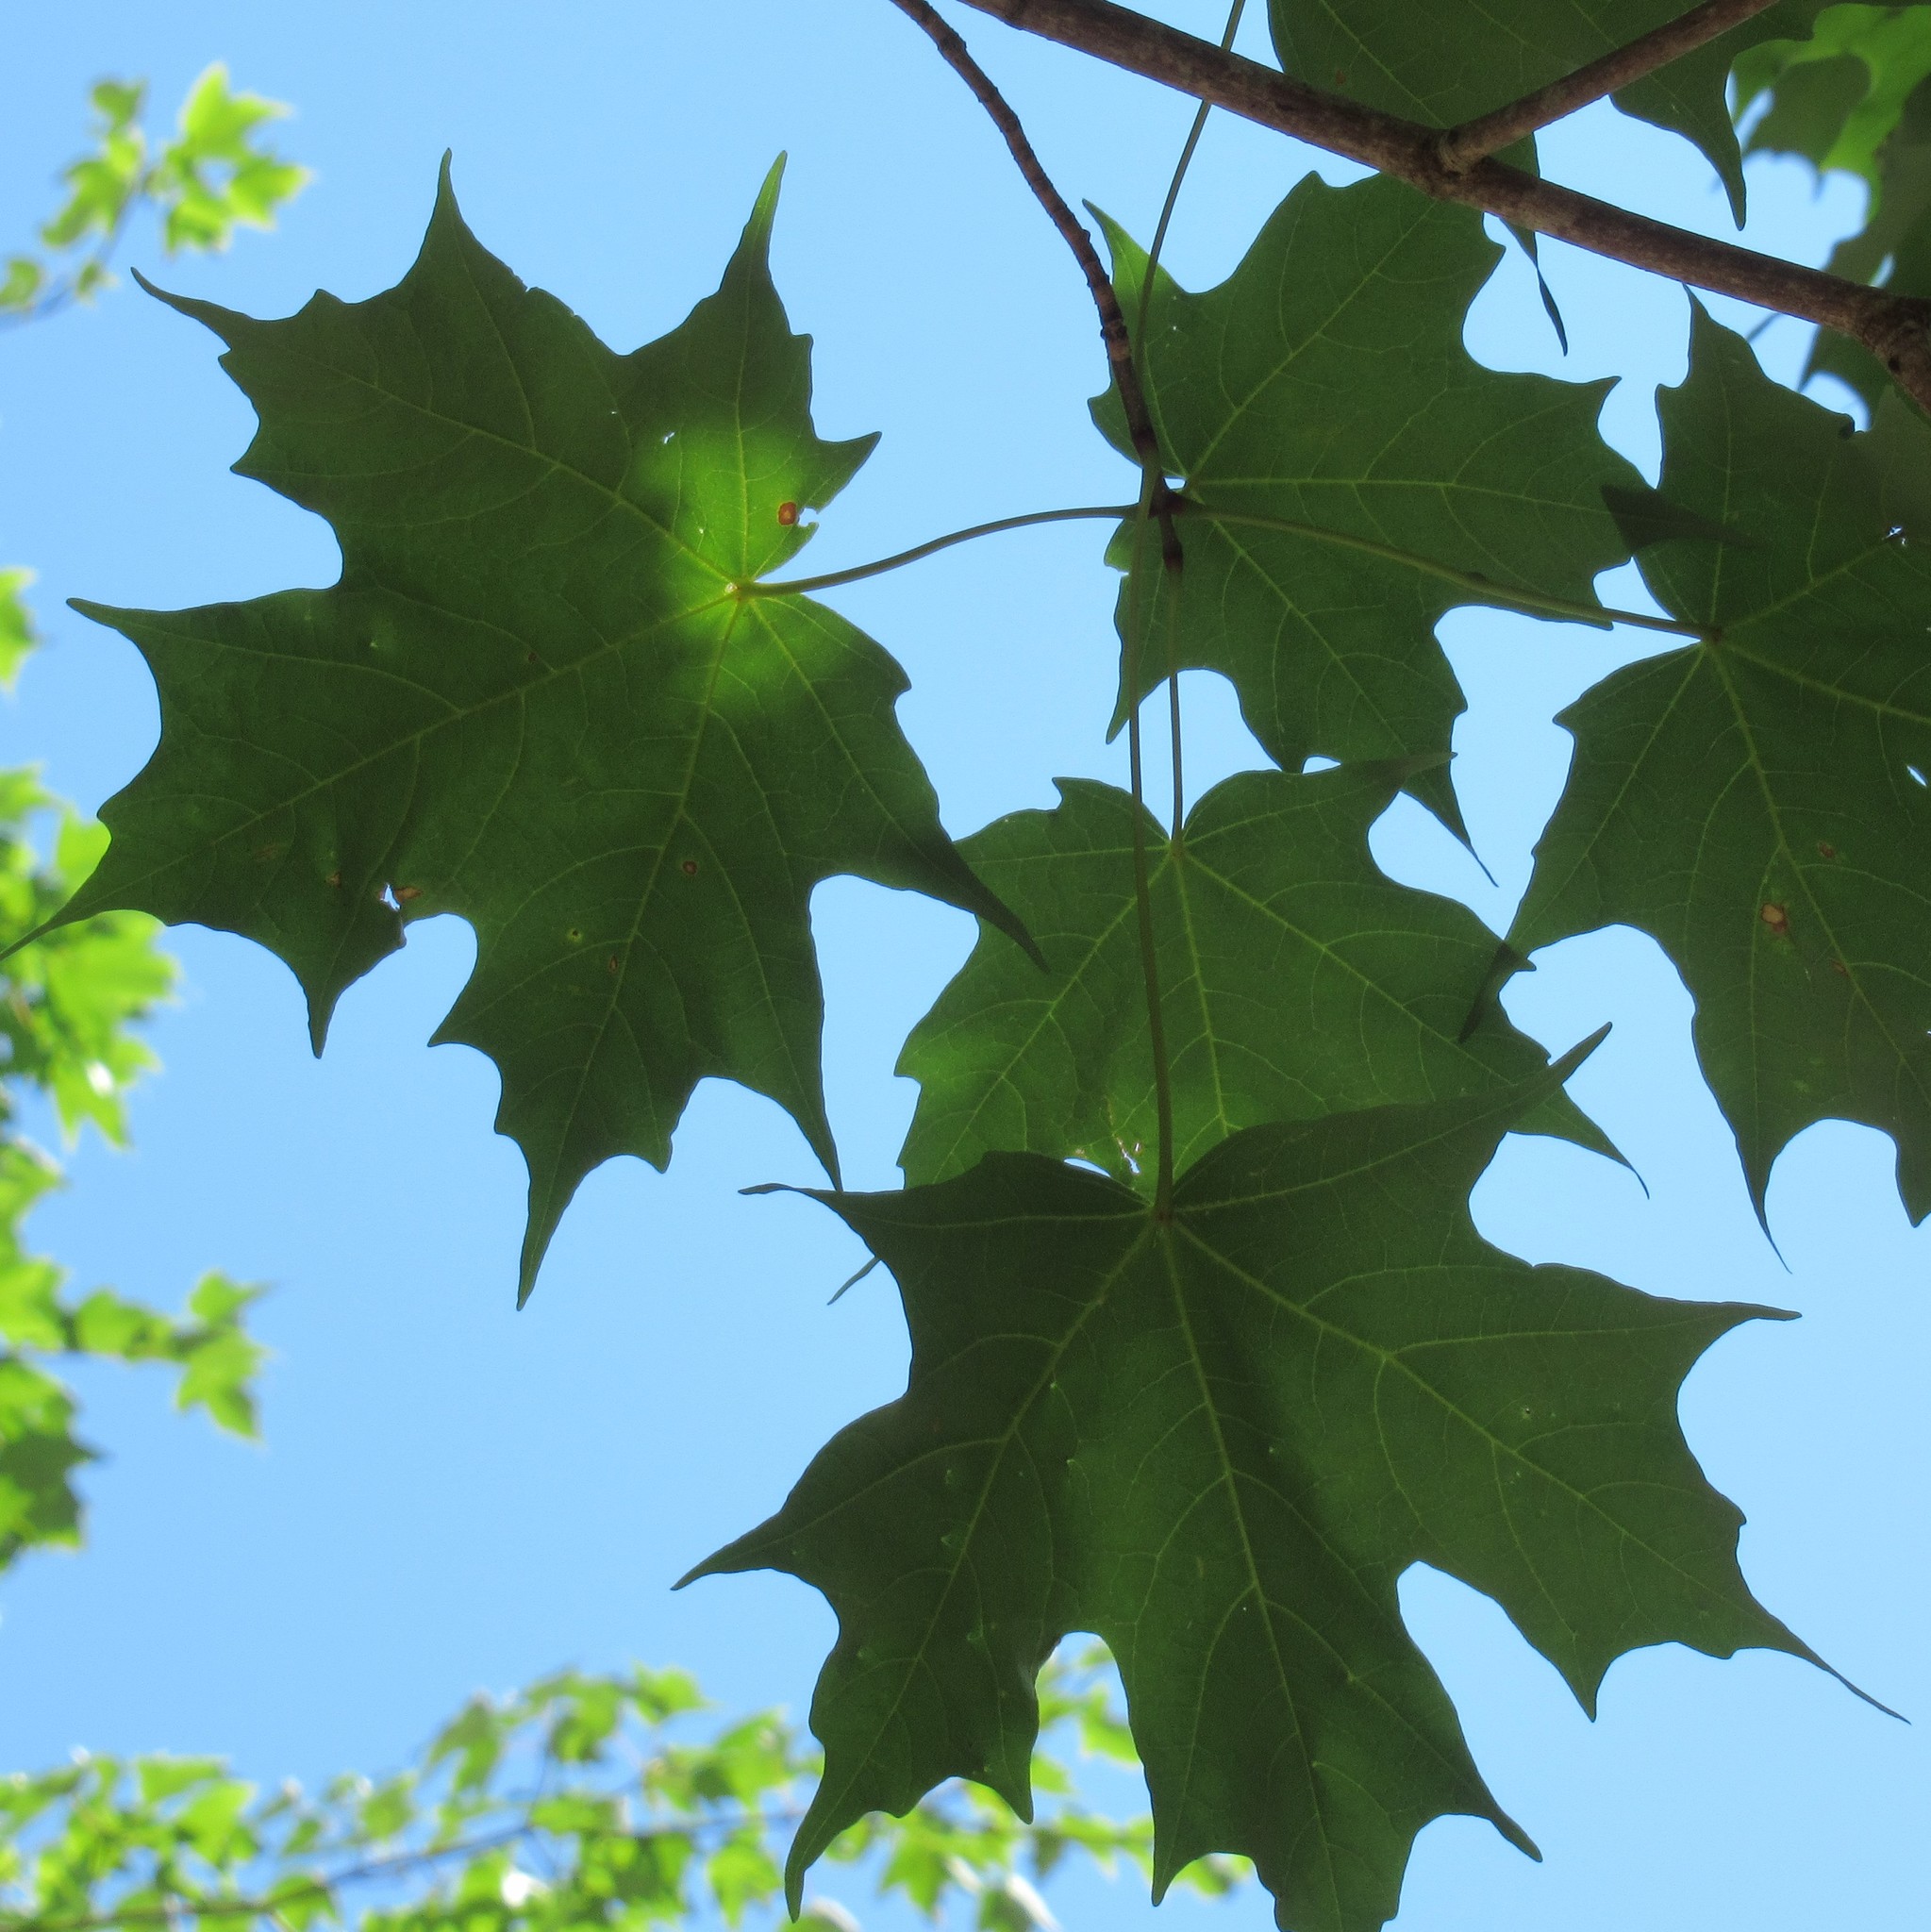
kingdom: Plantae
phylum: Tracheophyta
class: Magnoliopsida
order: Sapindales
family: Sapindaceae
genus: Acer
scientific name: Acer saccharum
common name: Sugar maple
